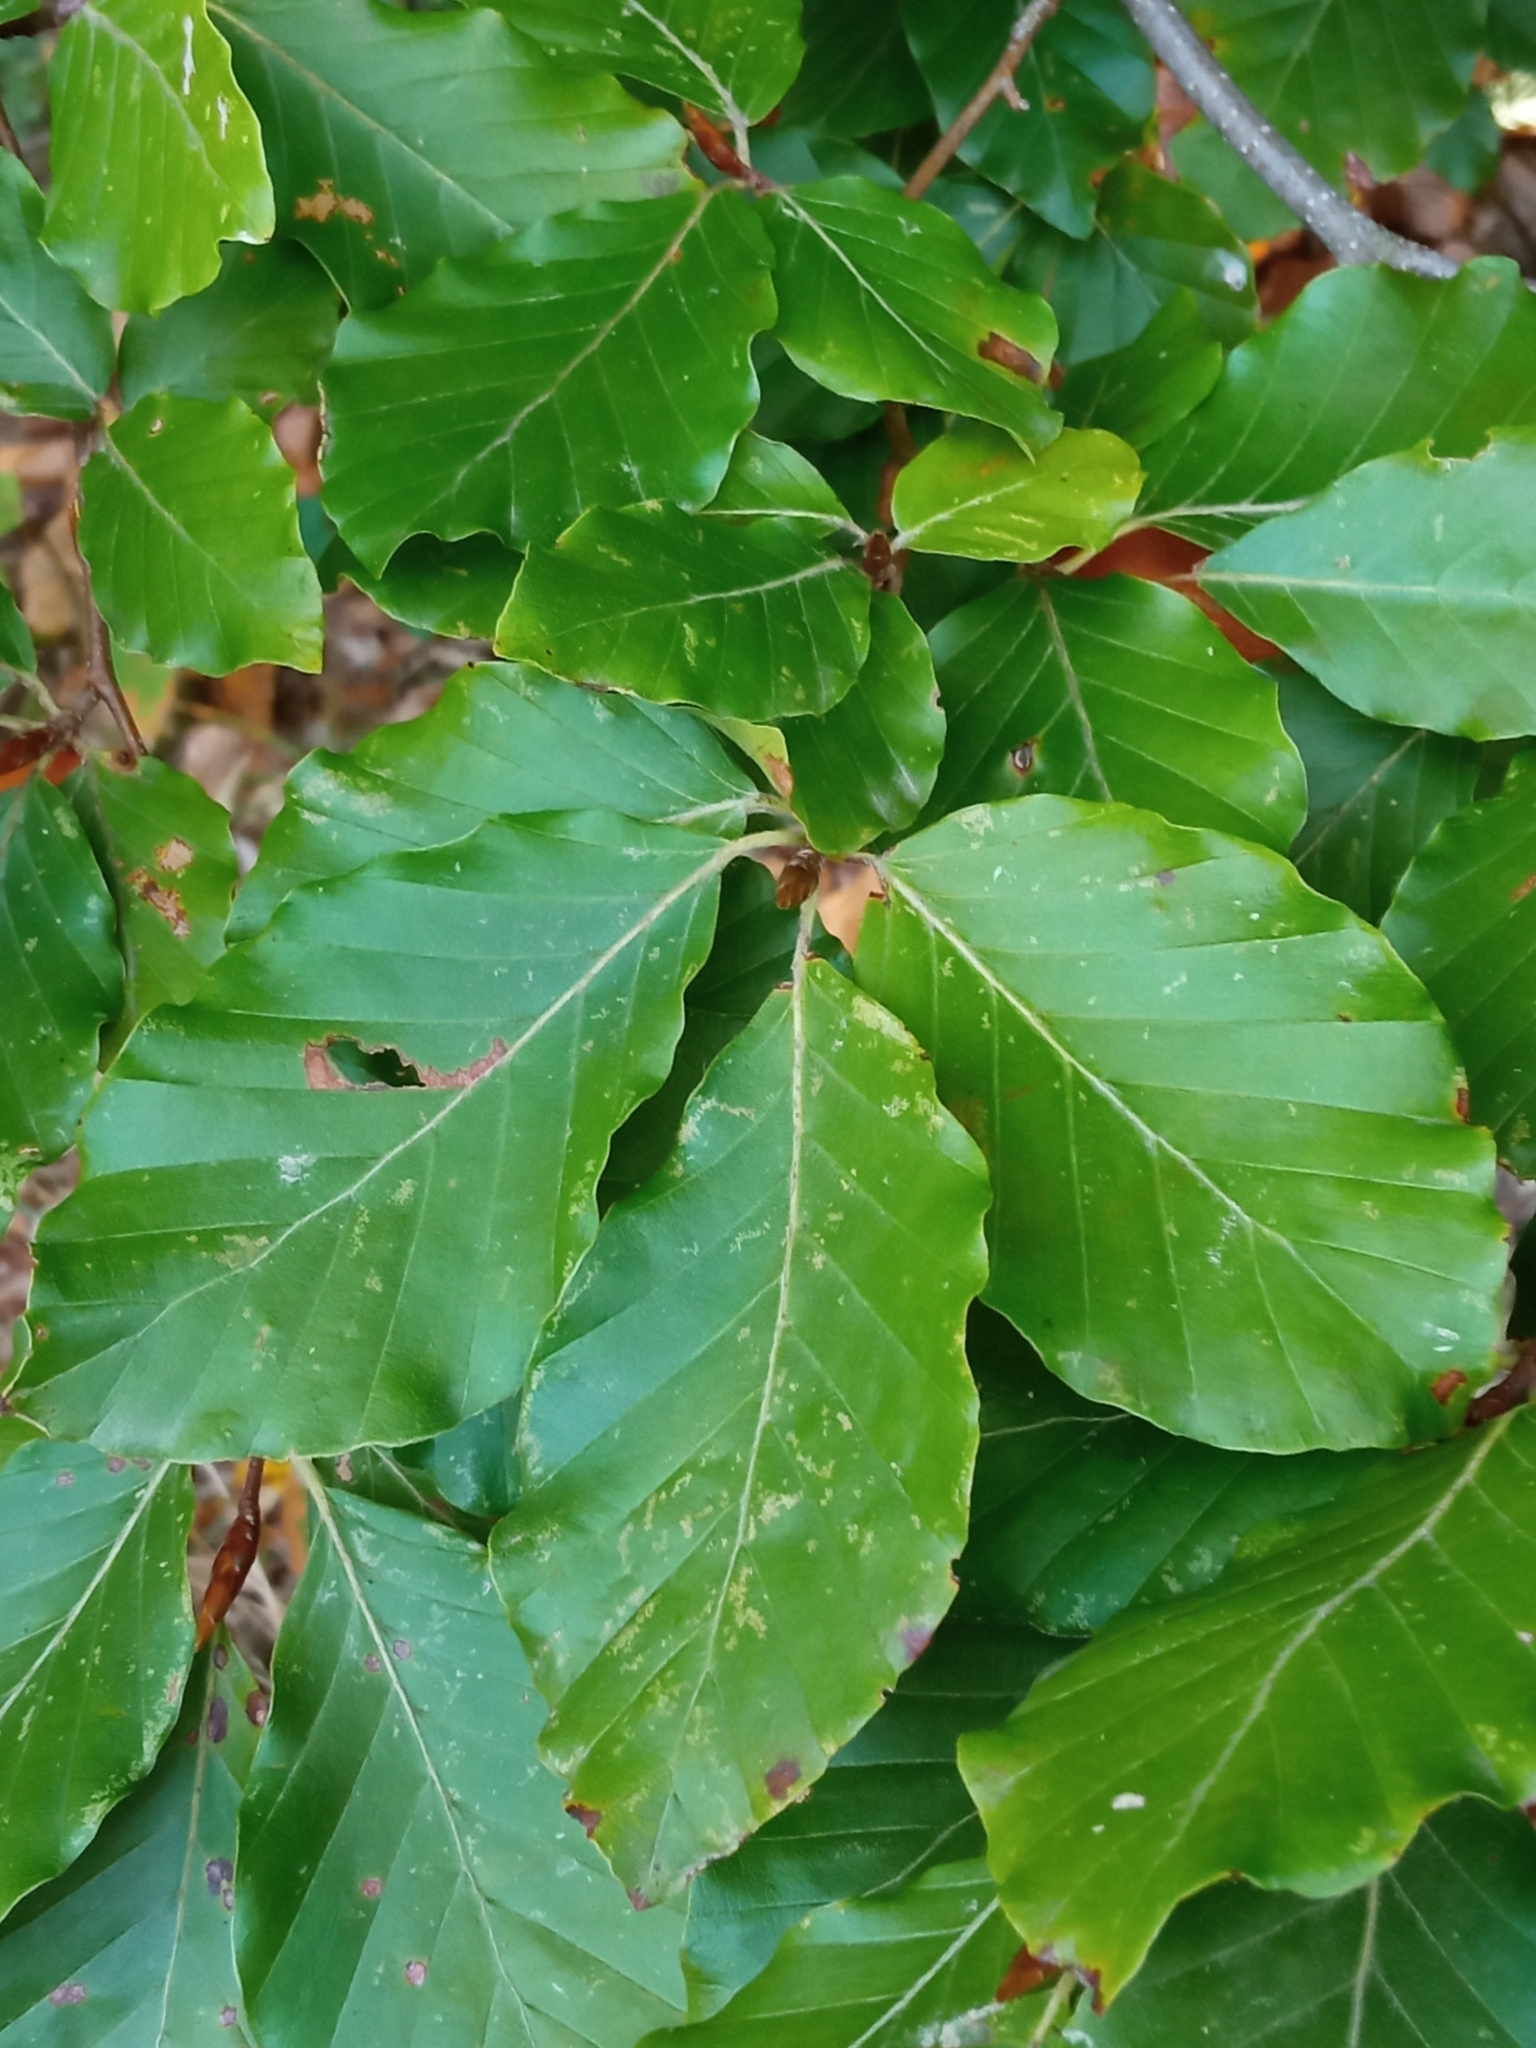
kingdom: Plantae
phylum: Tracheophyta
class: Magnoliopsida
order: Fagales
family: Fagaceae
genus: Fagus
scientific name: Fagus sylvatica
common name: Beech
